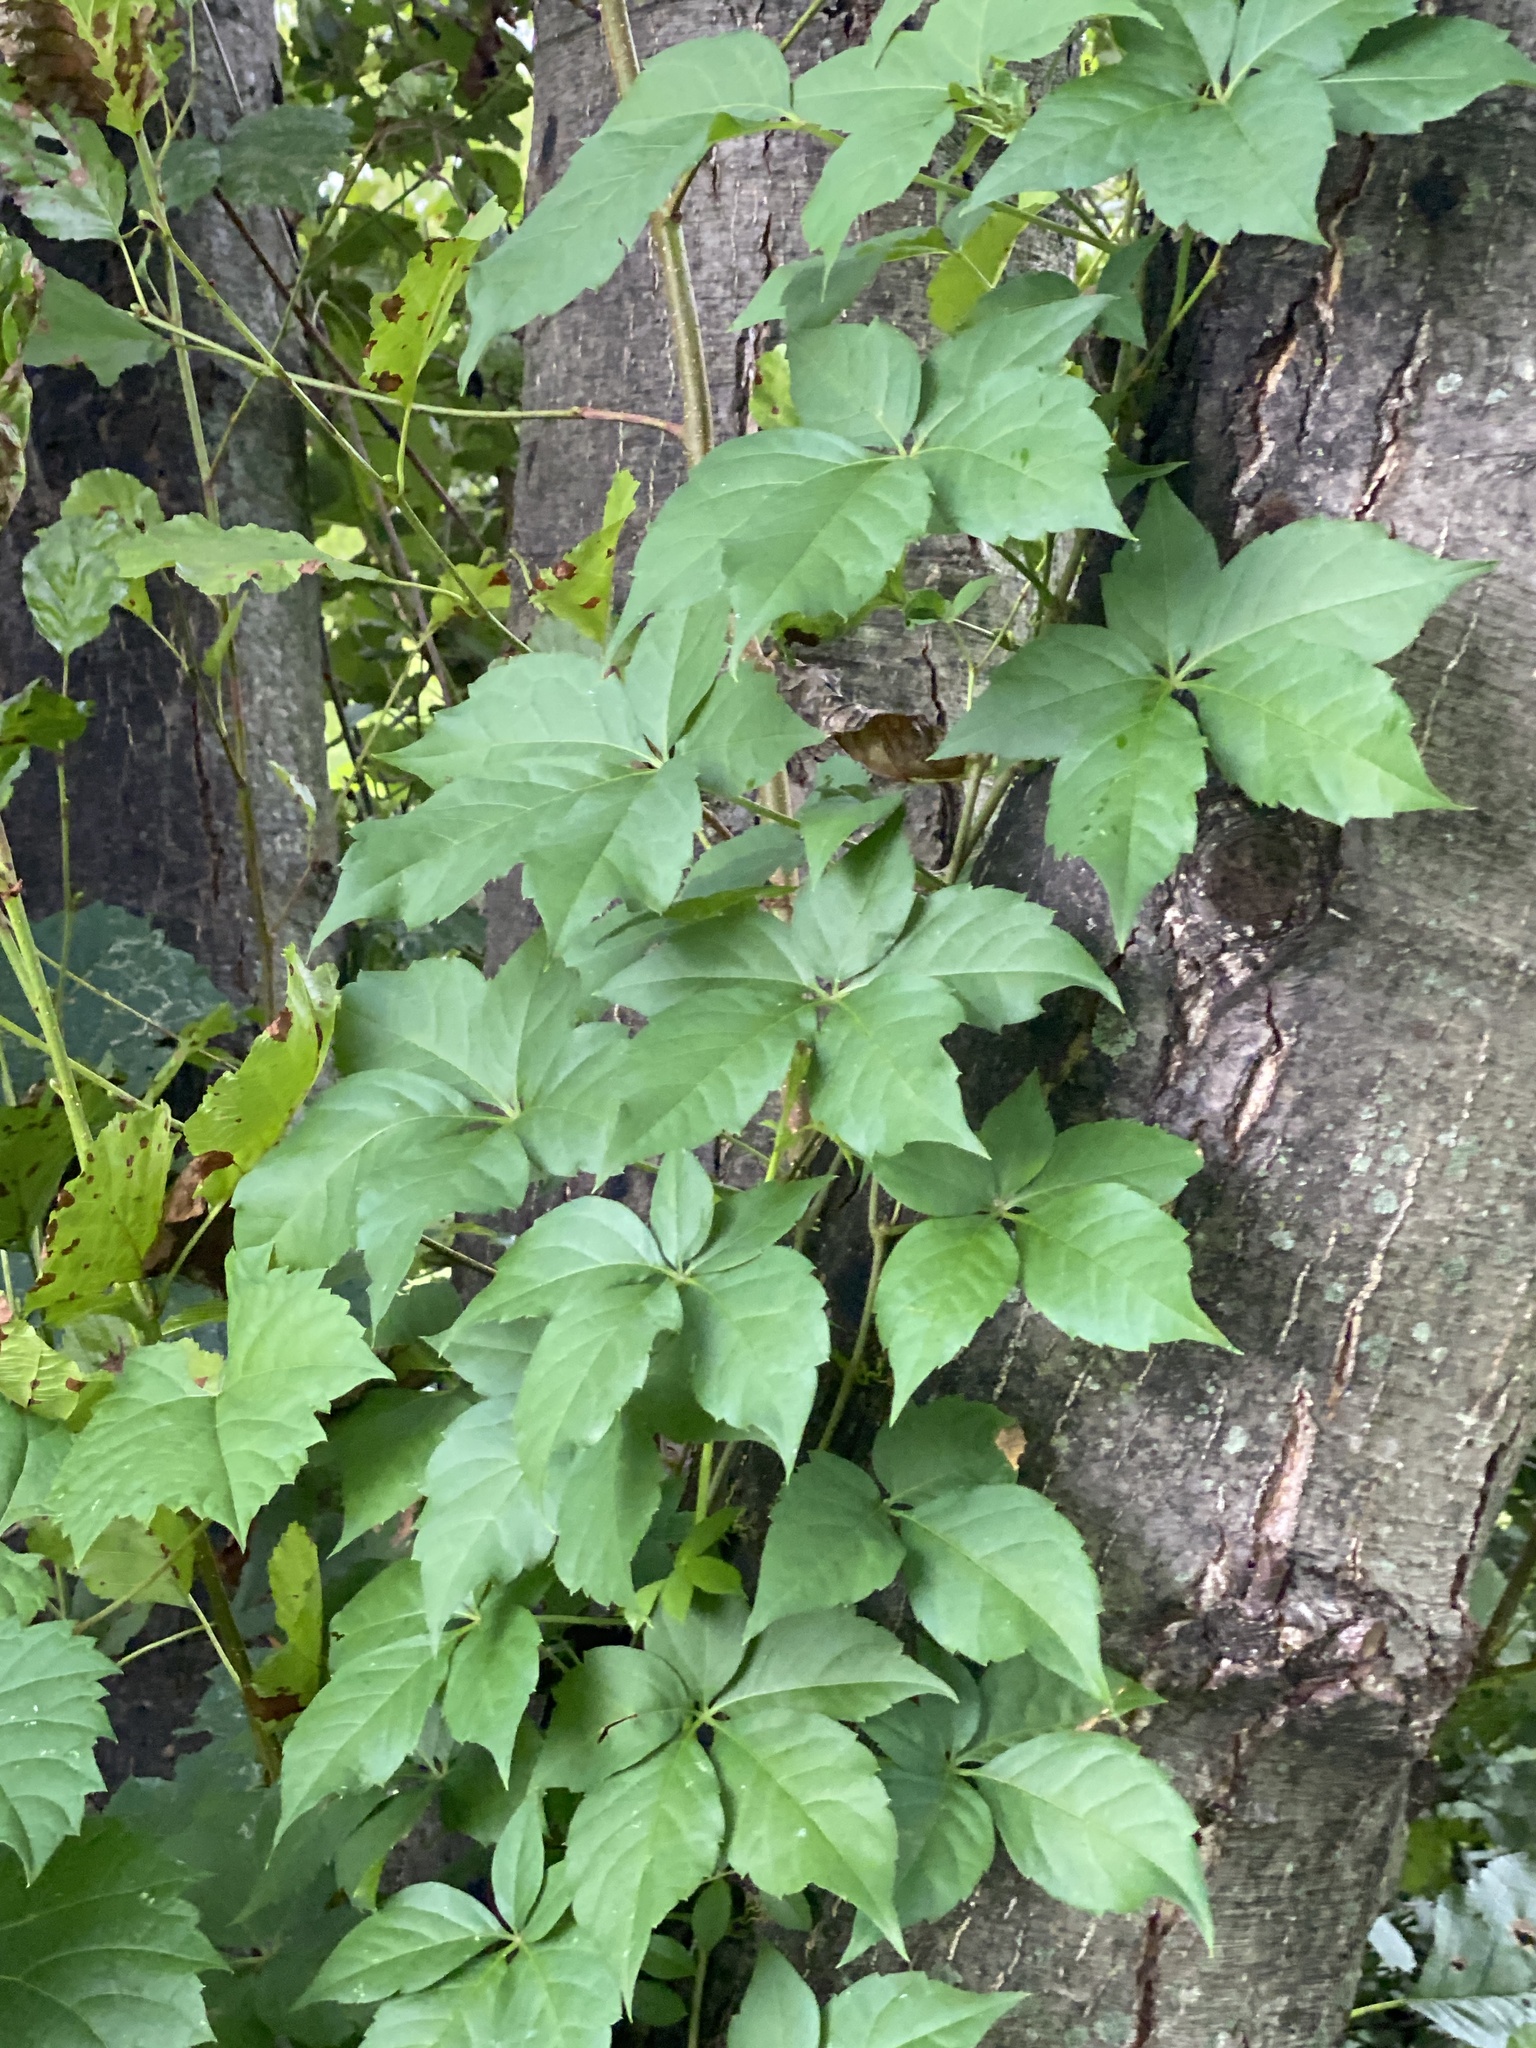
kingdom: Plantae
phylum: Tracheophyta
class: Magnoliopsida
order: Vitales
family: Vitaceae
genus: Parthenocissus
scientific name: Parthenocissus quinquefolia
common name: Virginia-creeper
